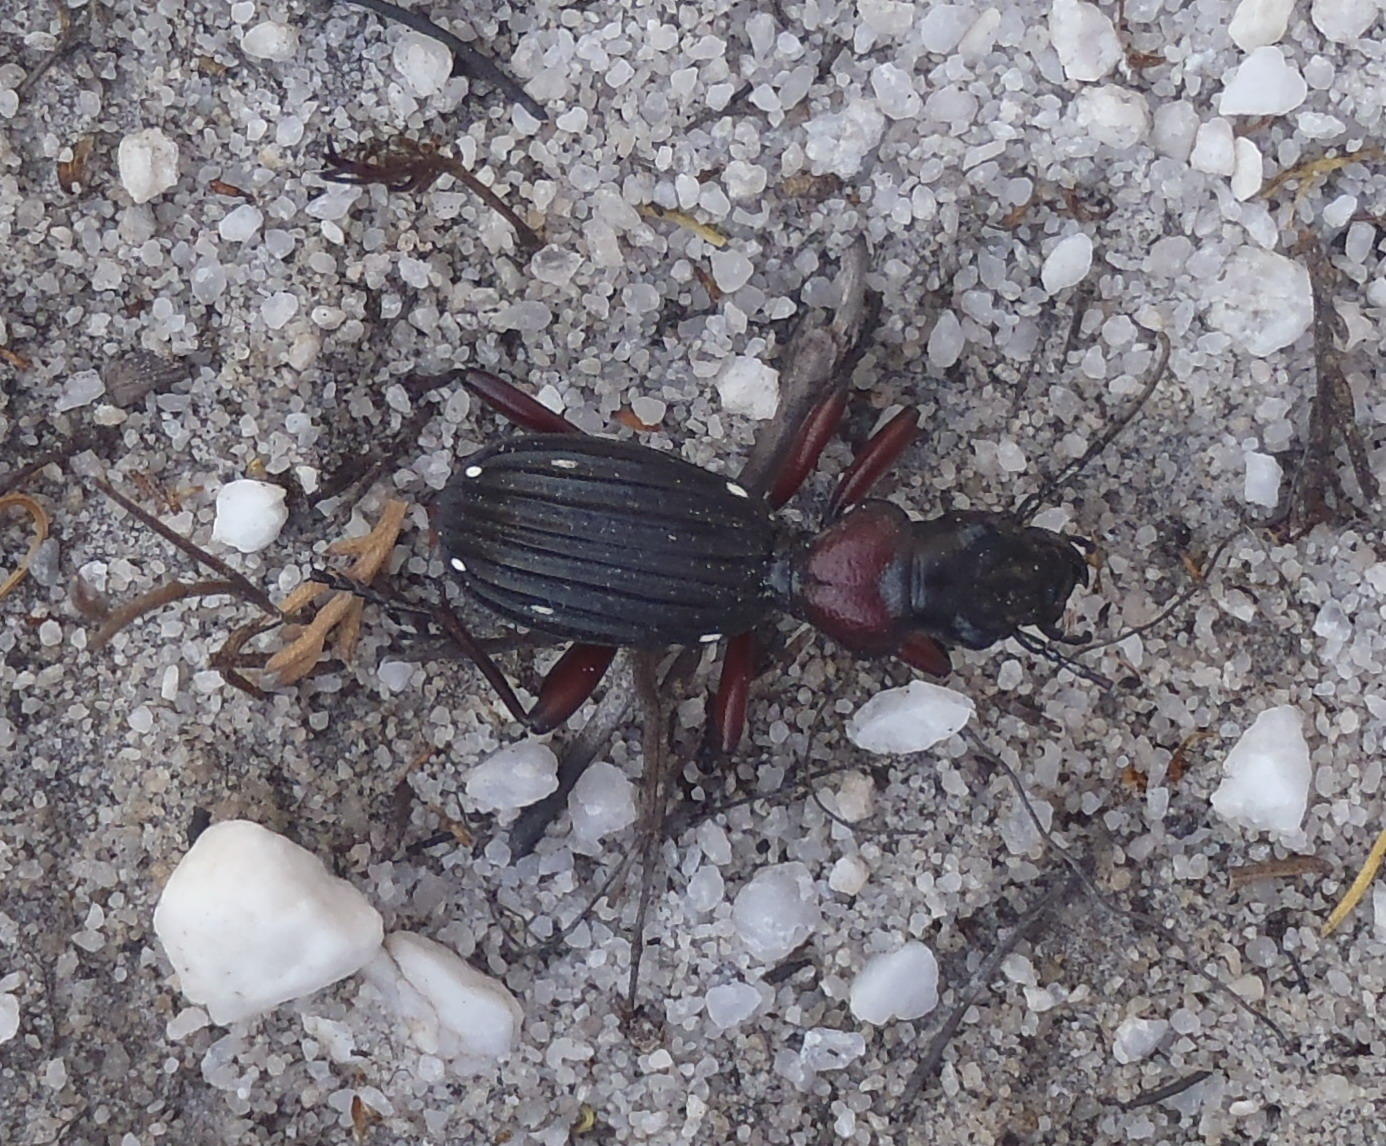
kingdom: Animalia
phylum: Arthropoda
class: Insecta
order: Coleoptera
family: Carabidae
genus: Anthia
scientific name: Anthia decemguttata
